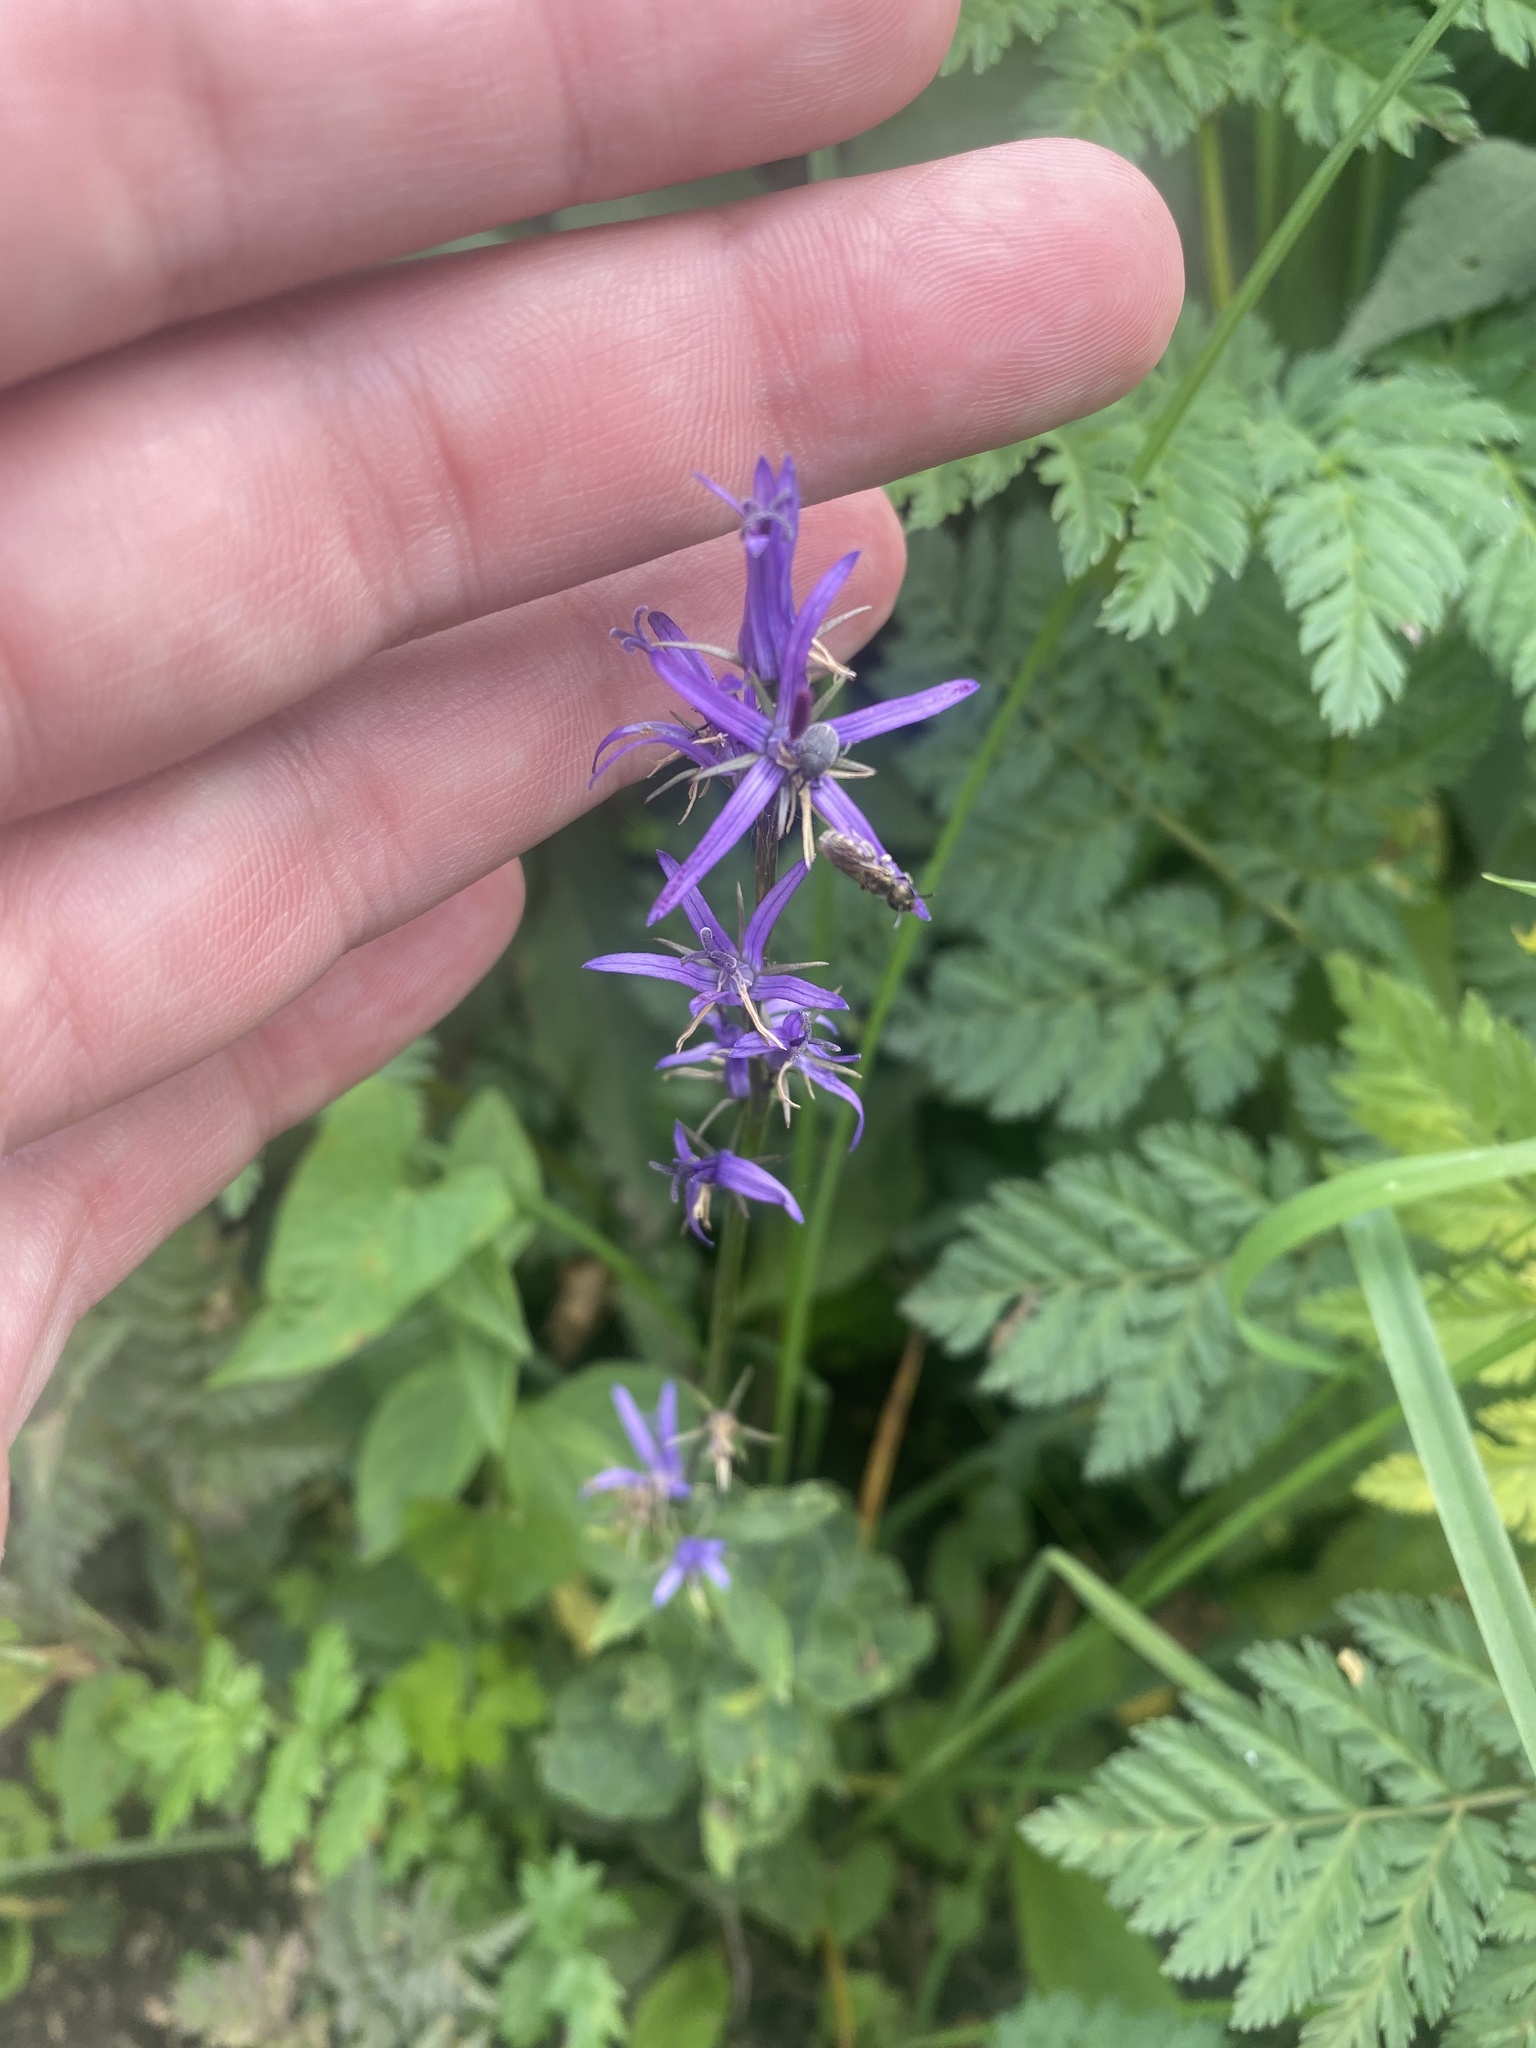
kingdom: Plantae
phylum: Tracheophyta
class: Magnoliopsida
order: Asterales
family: Campanulaceae
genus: Asyneuma
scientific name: Asyneuma campanuloides
